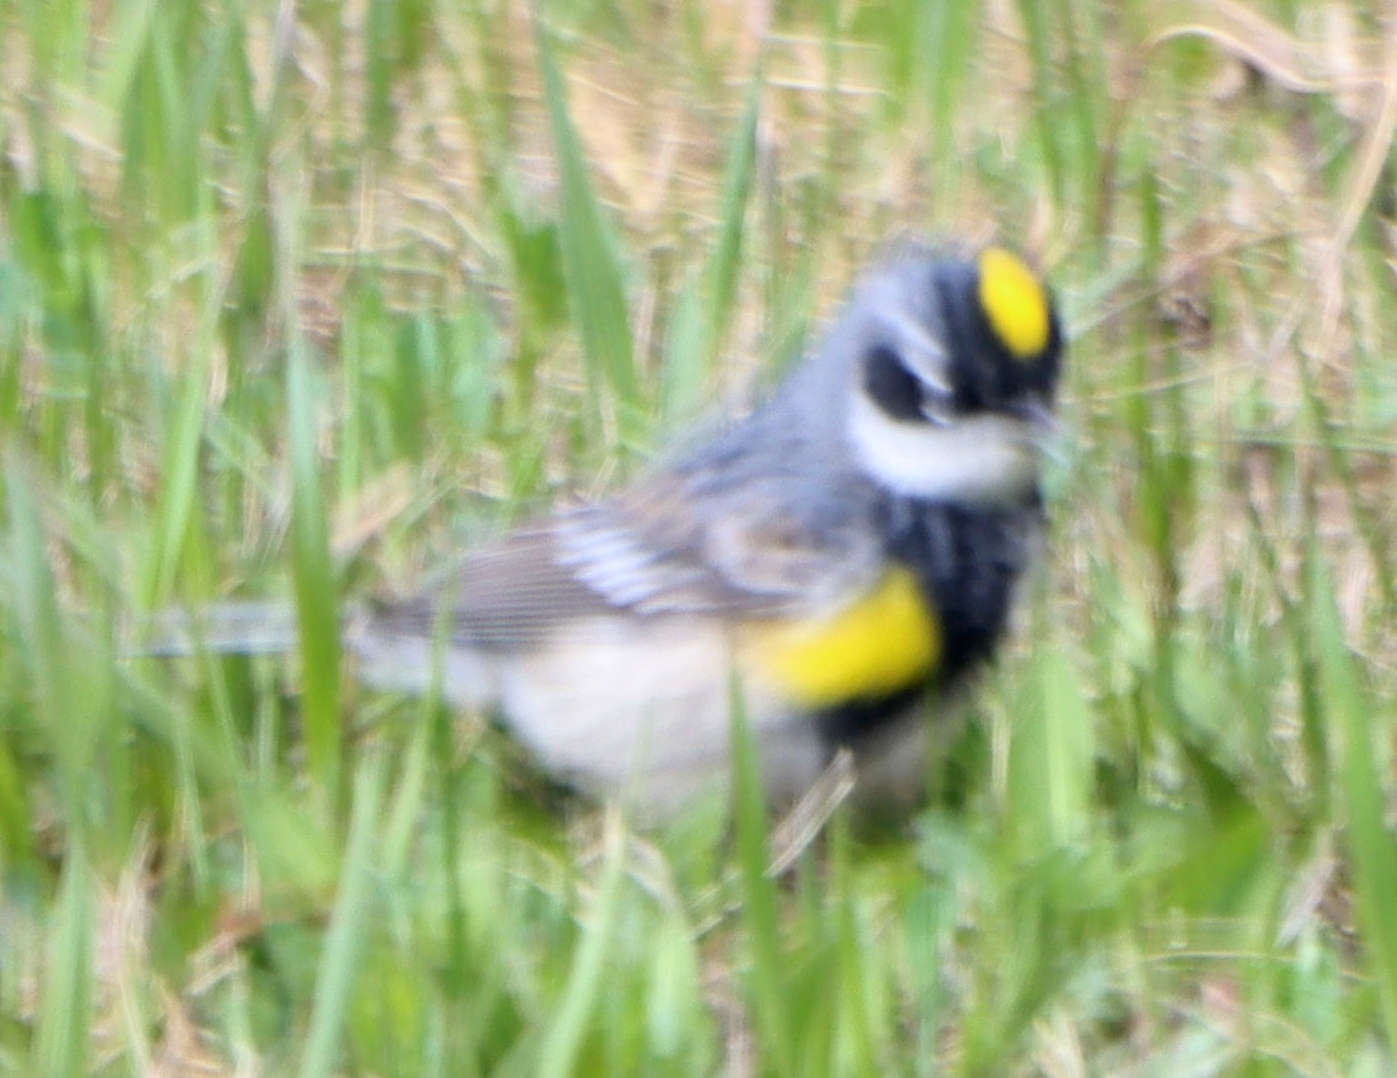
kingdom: Animalia
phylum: Chordata
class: Aves
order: Passeriformes
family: Parulidae
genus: Setophaga
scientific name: Setophaga coronata
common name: Myrtle warbler
